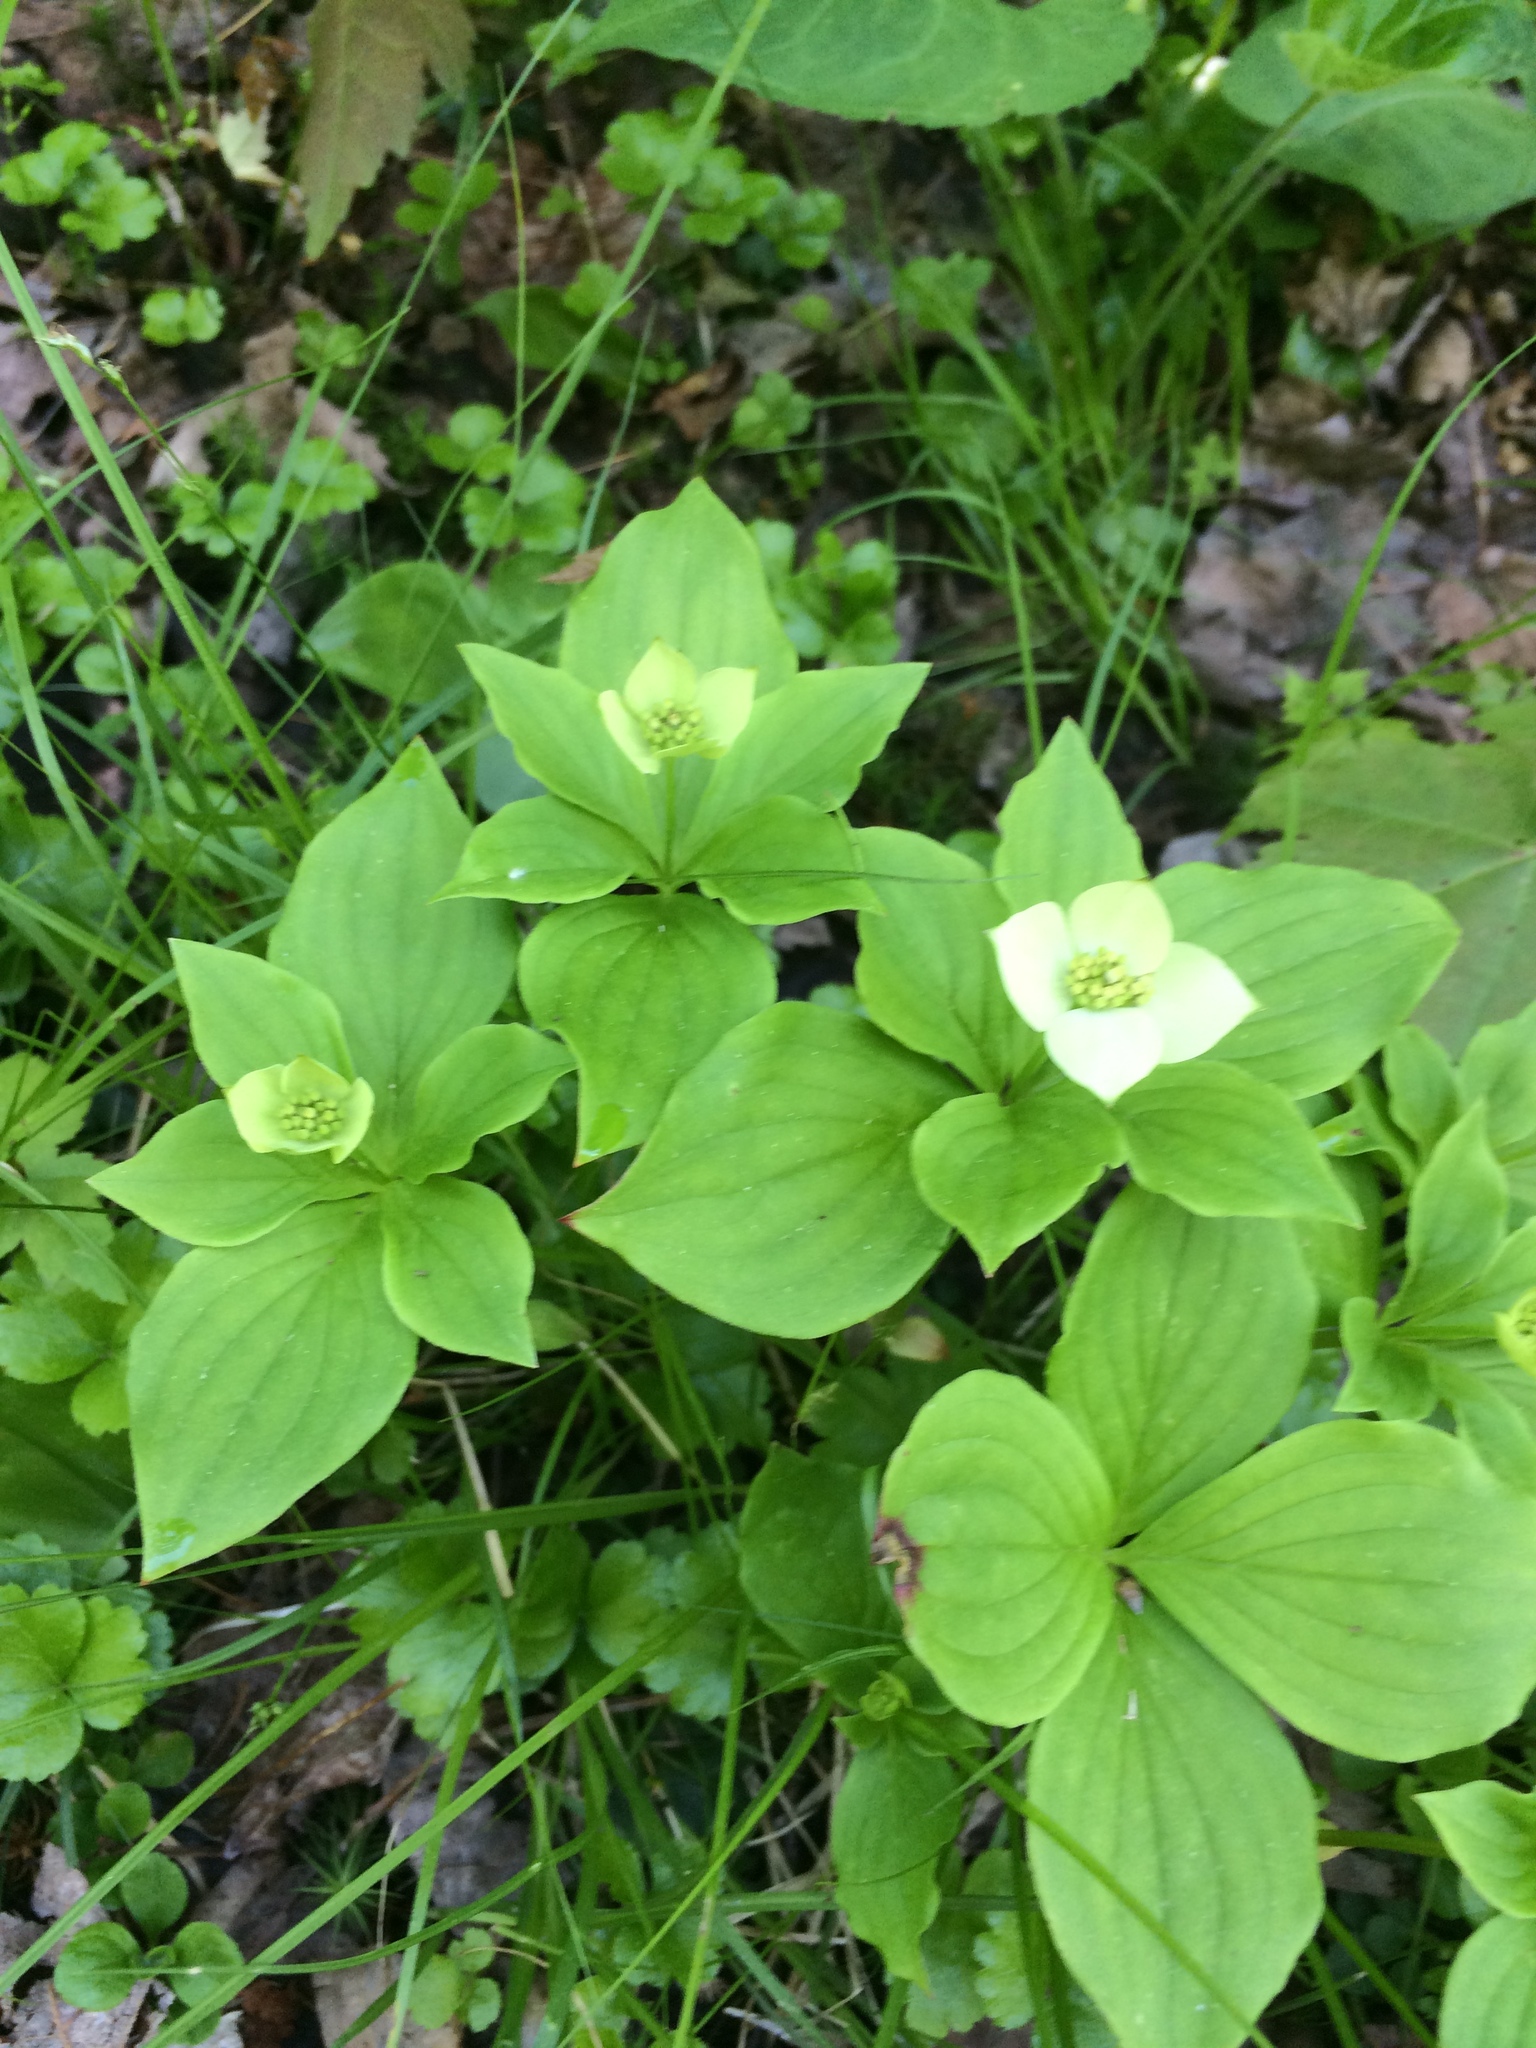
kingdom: Plantae
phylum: Tracheophyta
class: Magnoliopsida
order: Cornales
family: Cornaceae
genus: Cornus
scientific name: Cornus canadensis
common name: Creeping dogwood
